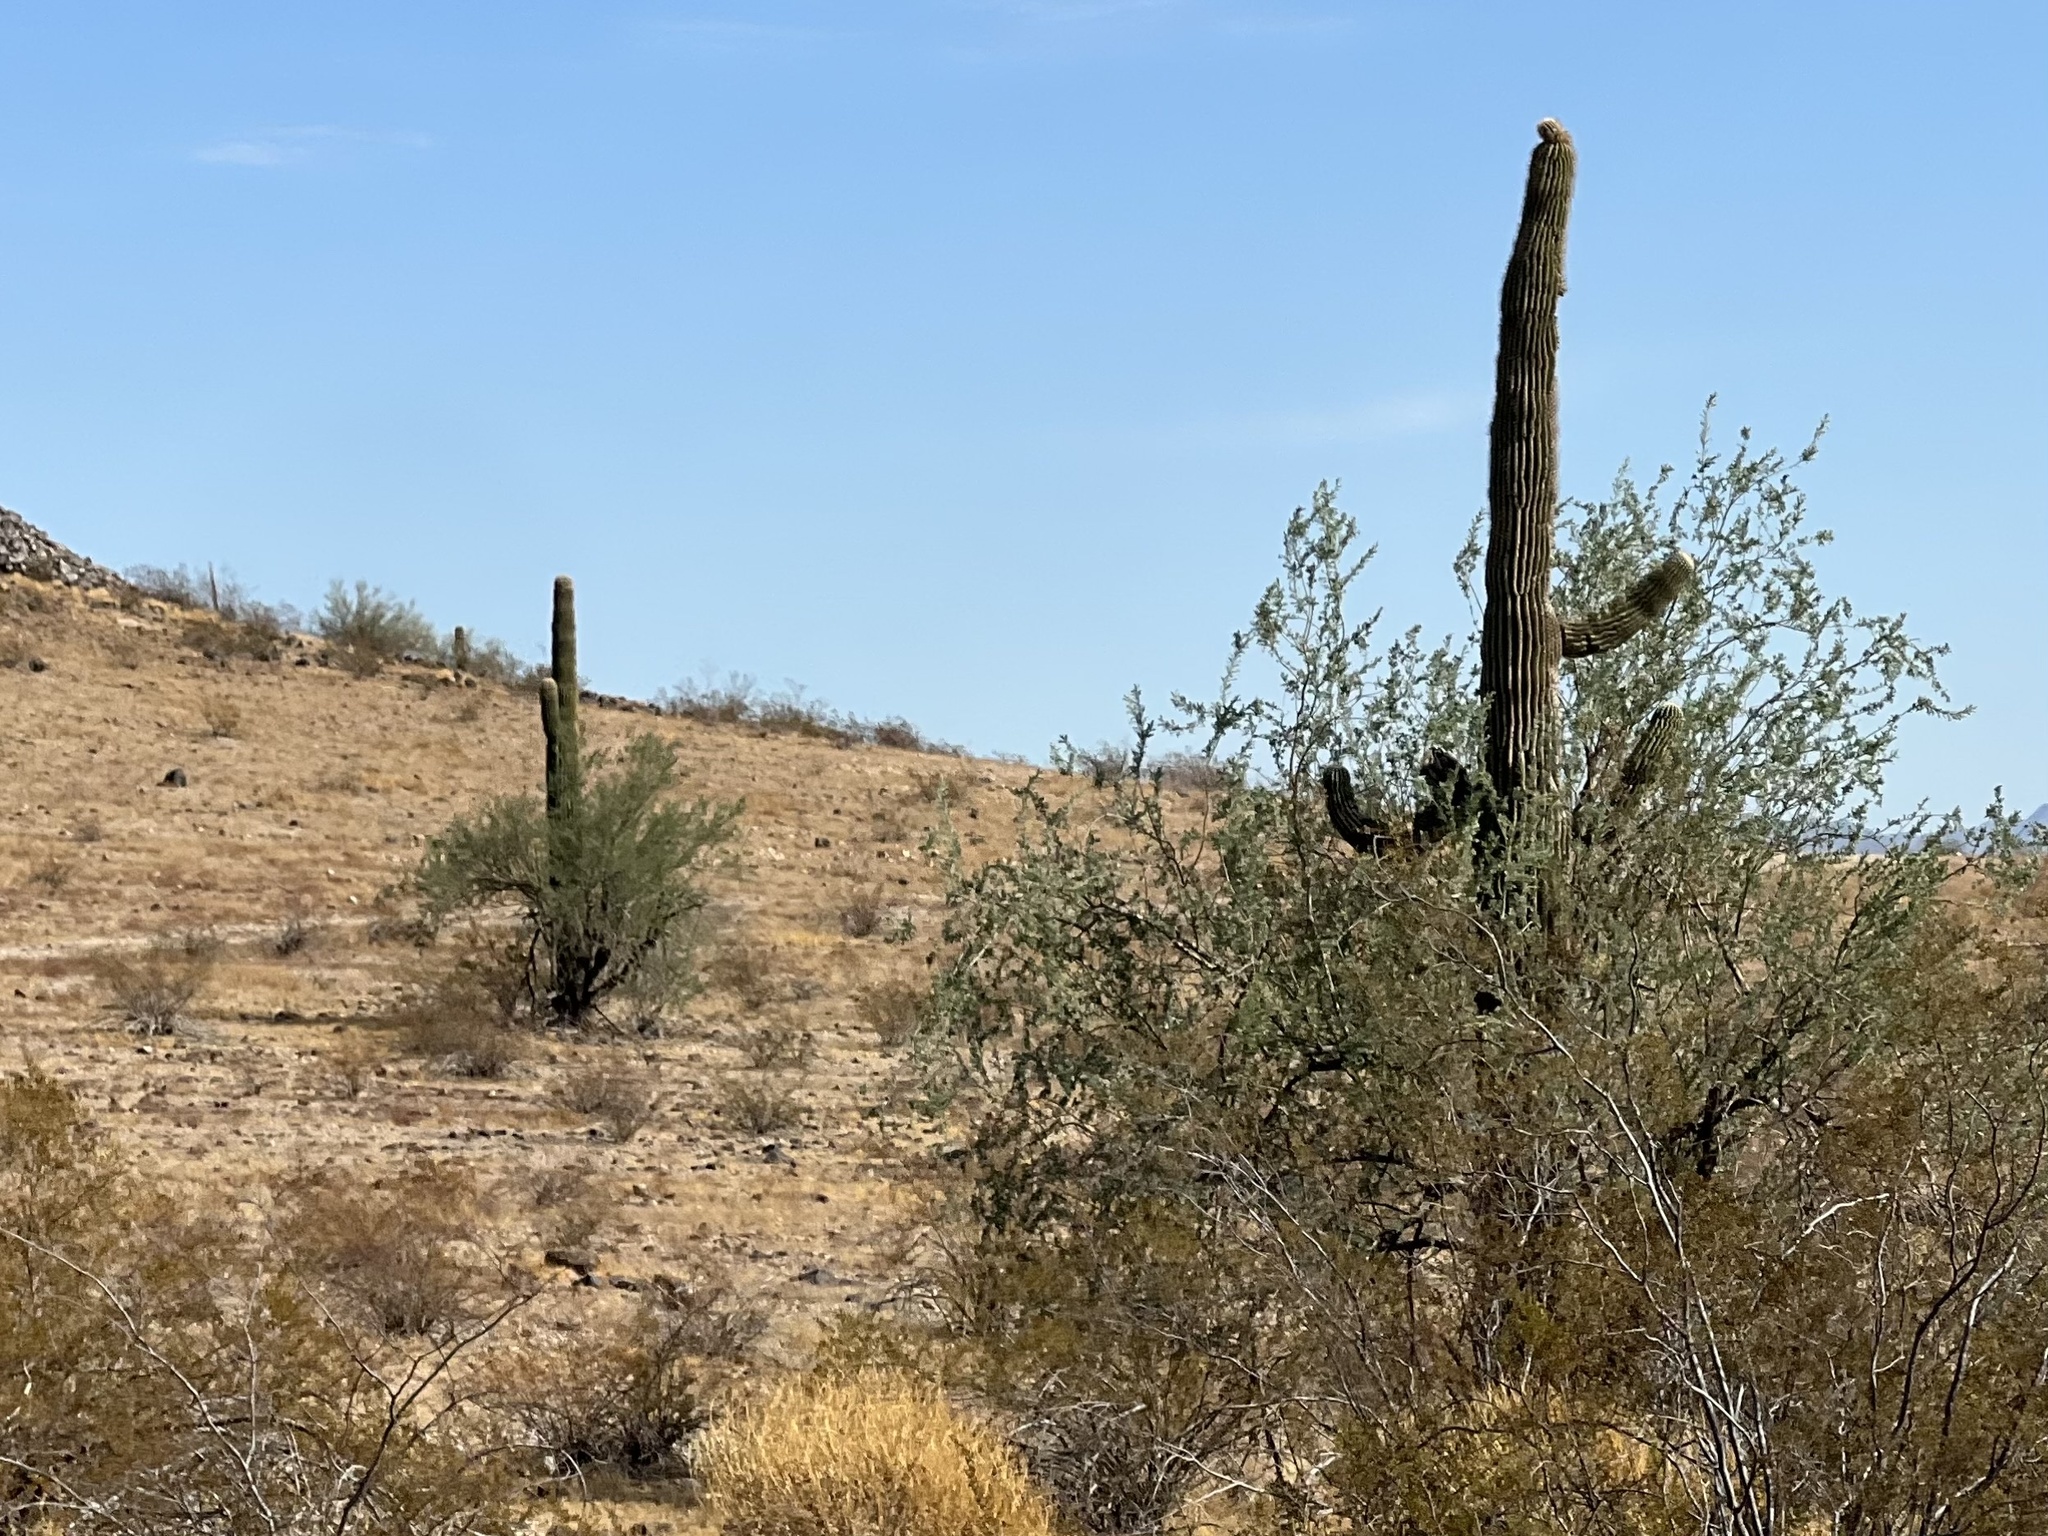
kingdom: Plantae
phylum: Tracheophyta
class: Magnoliopsida
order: Caryophyllales
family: Cactaceae
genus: Carnegiea
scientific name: Carnegiea gigantea
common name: Saguaro
